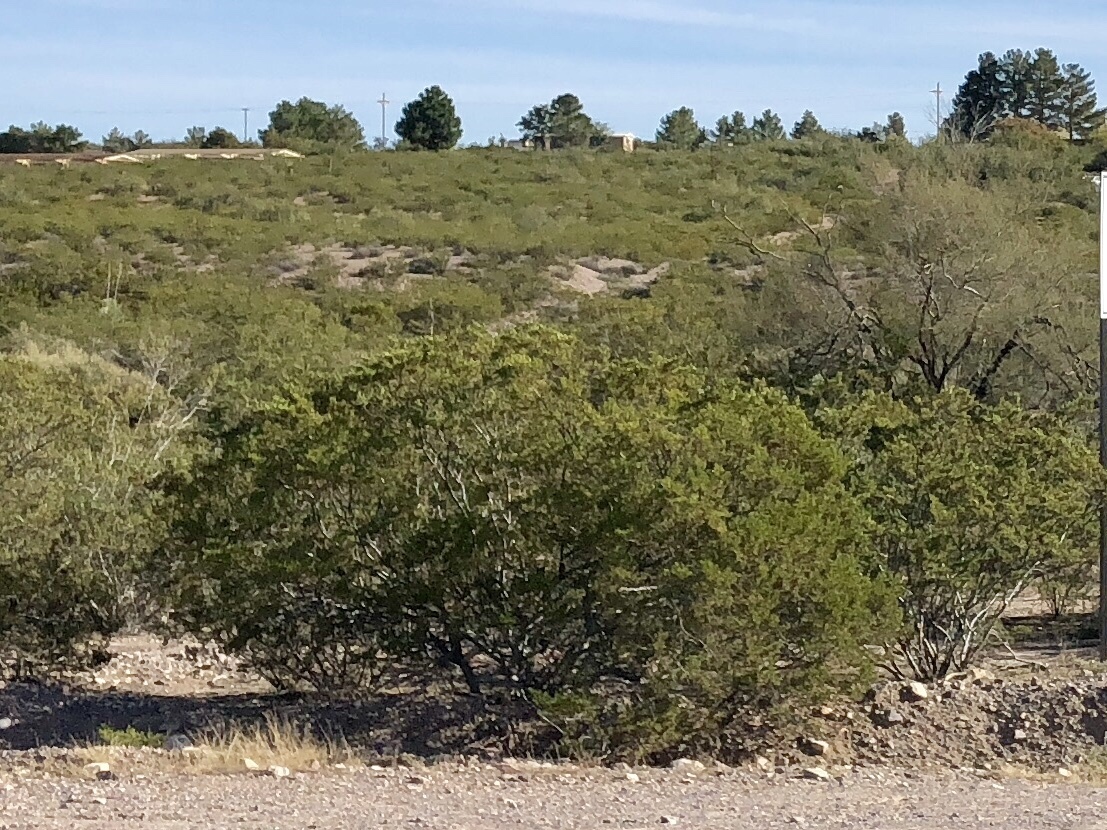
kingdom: Plantae
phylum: Tracheophyta
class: Magnoliopsida
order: Zygophyllales
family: Zygophyllaceae
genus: Larrea
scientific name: Larrea tridentata
